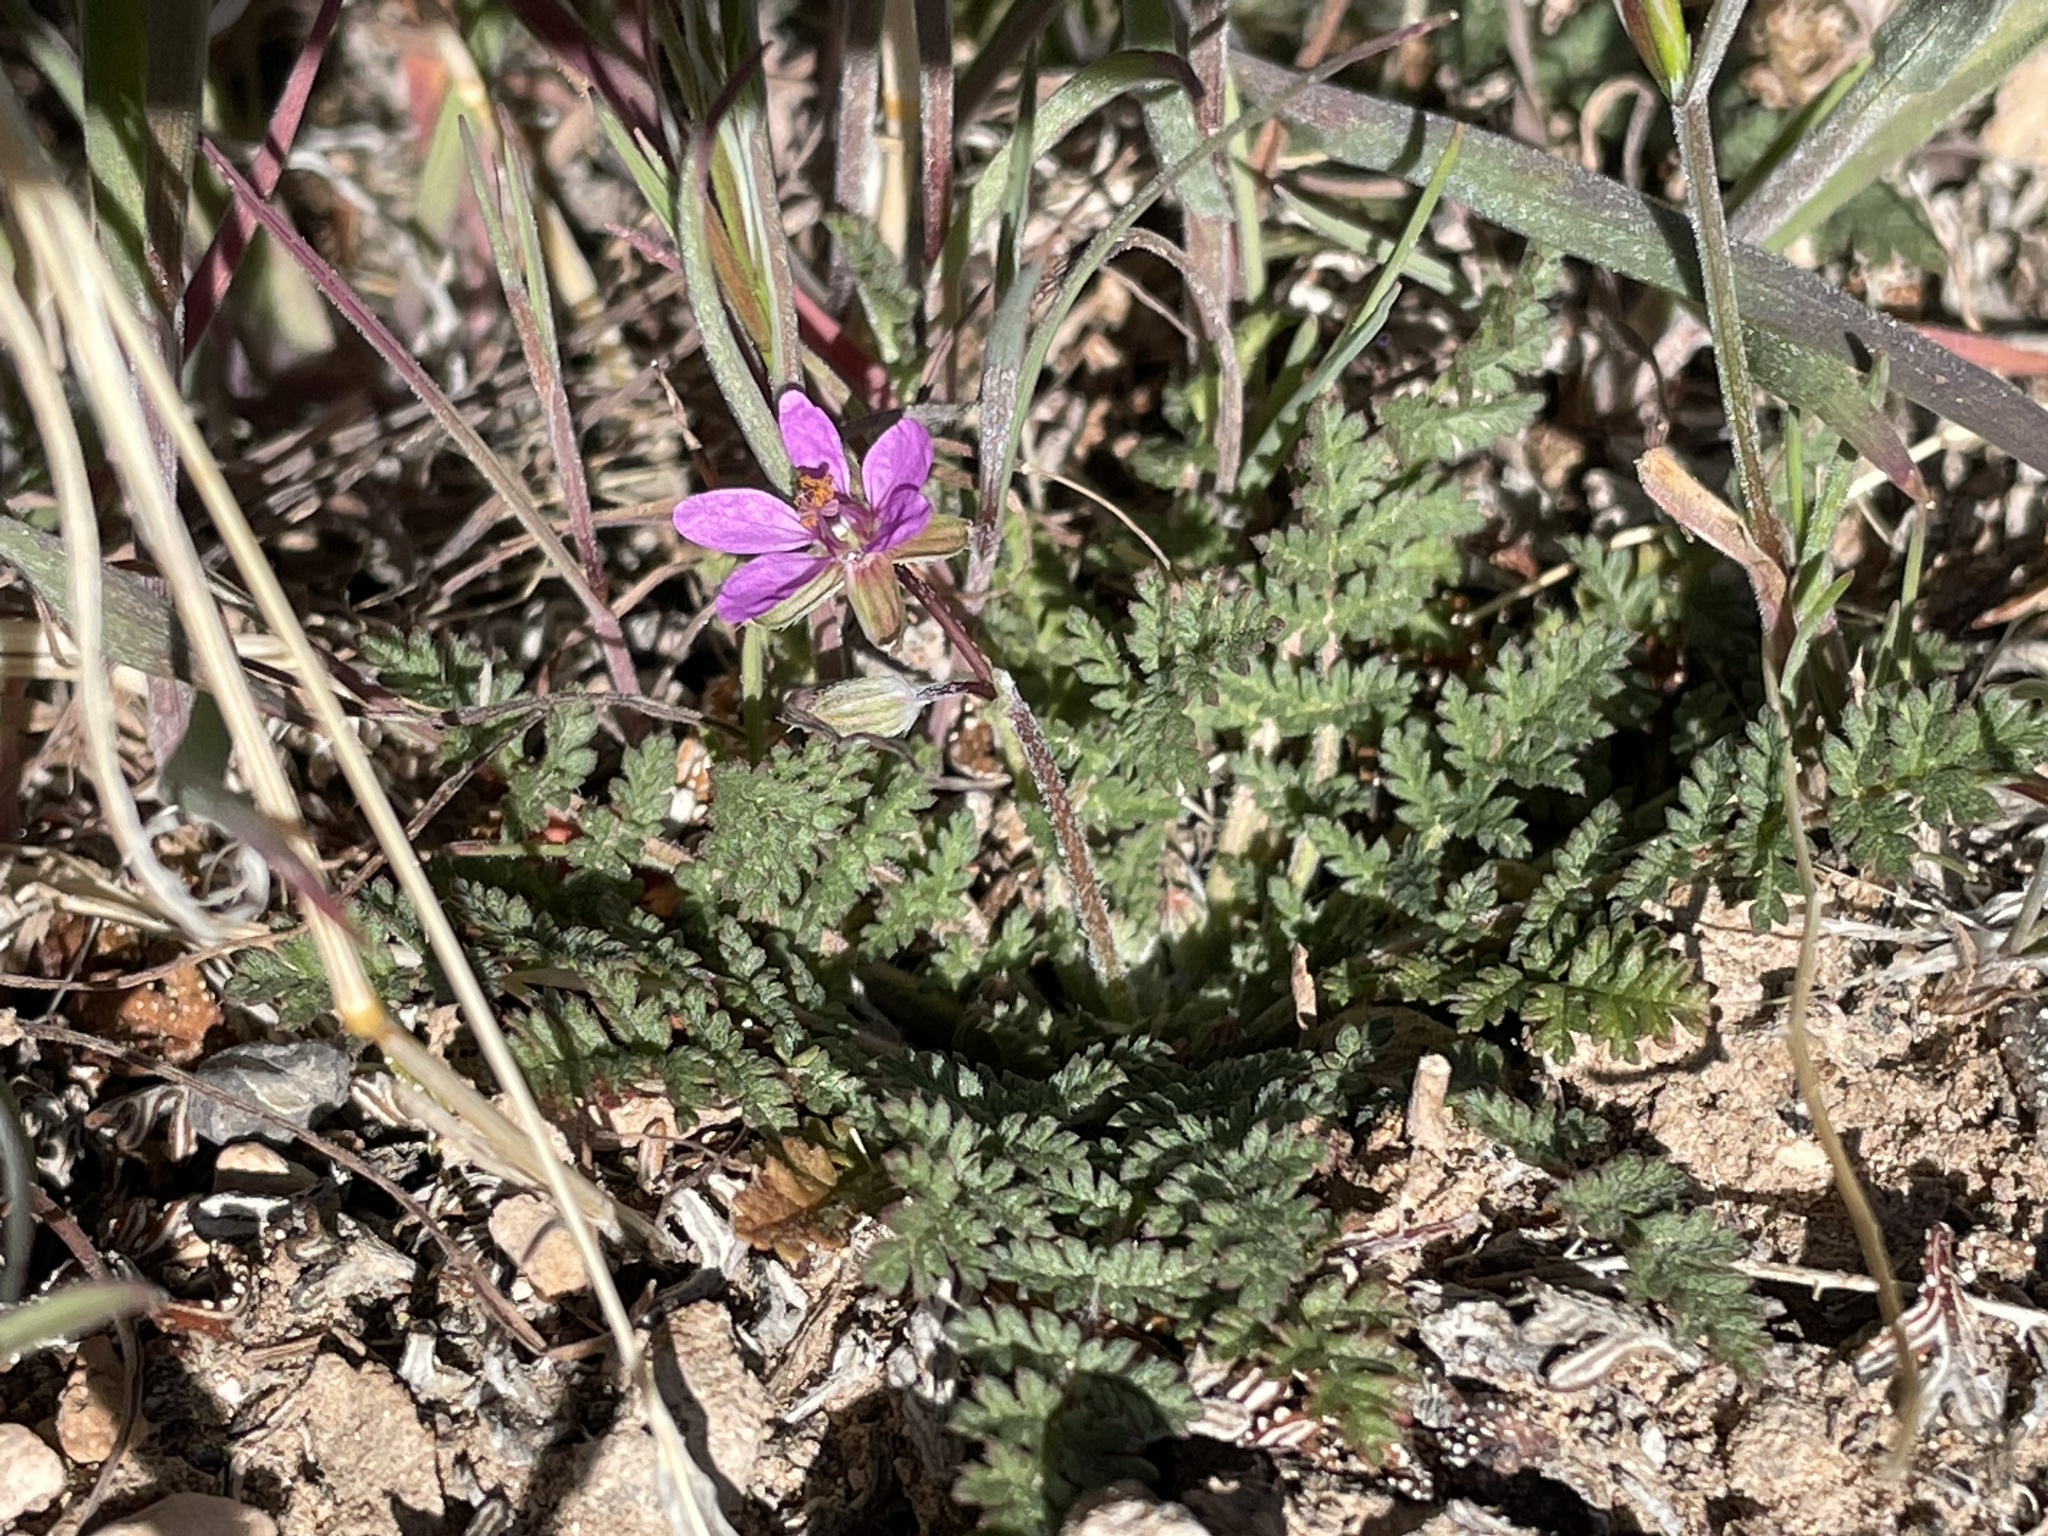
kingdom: Plantae
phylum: Tracheophyta
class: Magnoliopsida
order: Geraniales
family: Geraniaceae
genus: Erodium
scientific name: Erodium cicutarium
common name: Common stork's-bill
